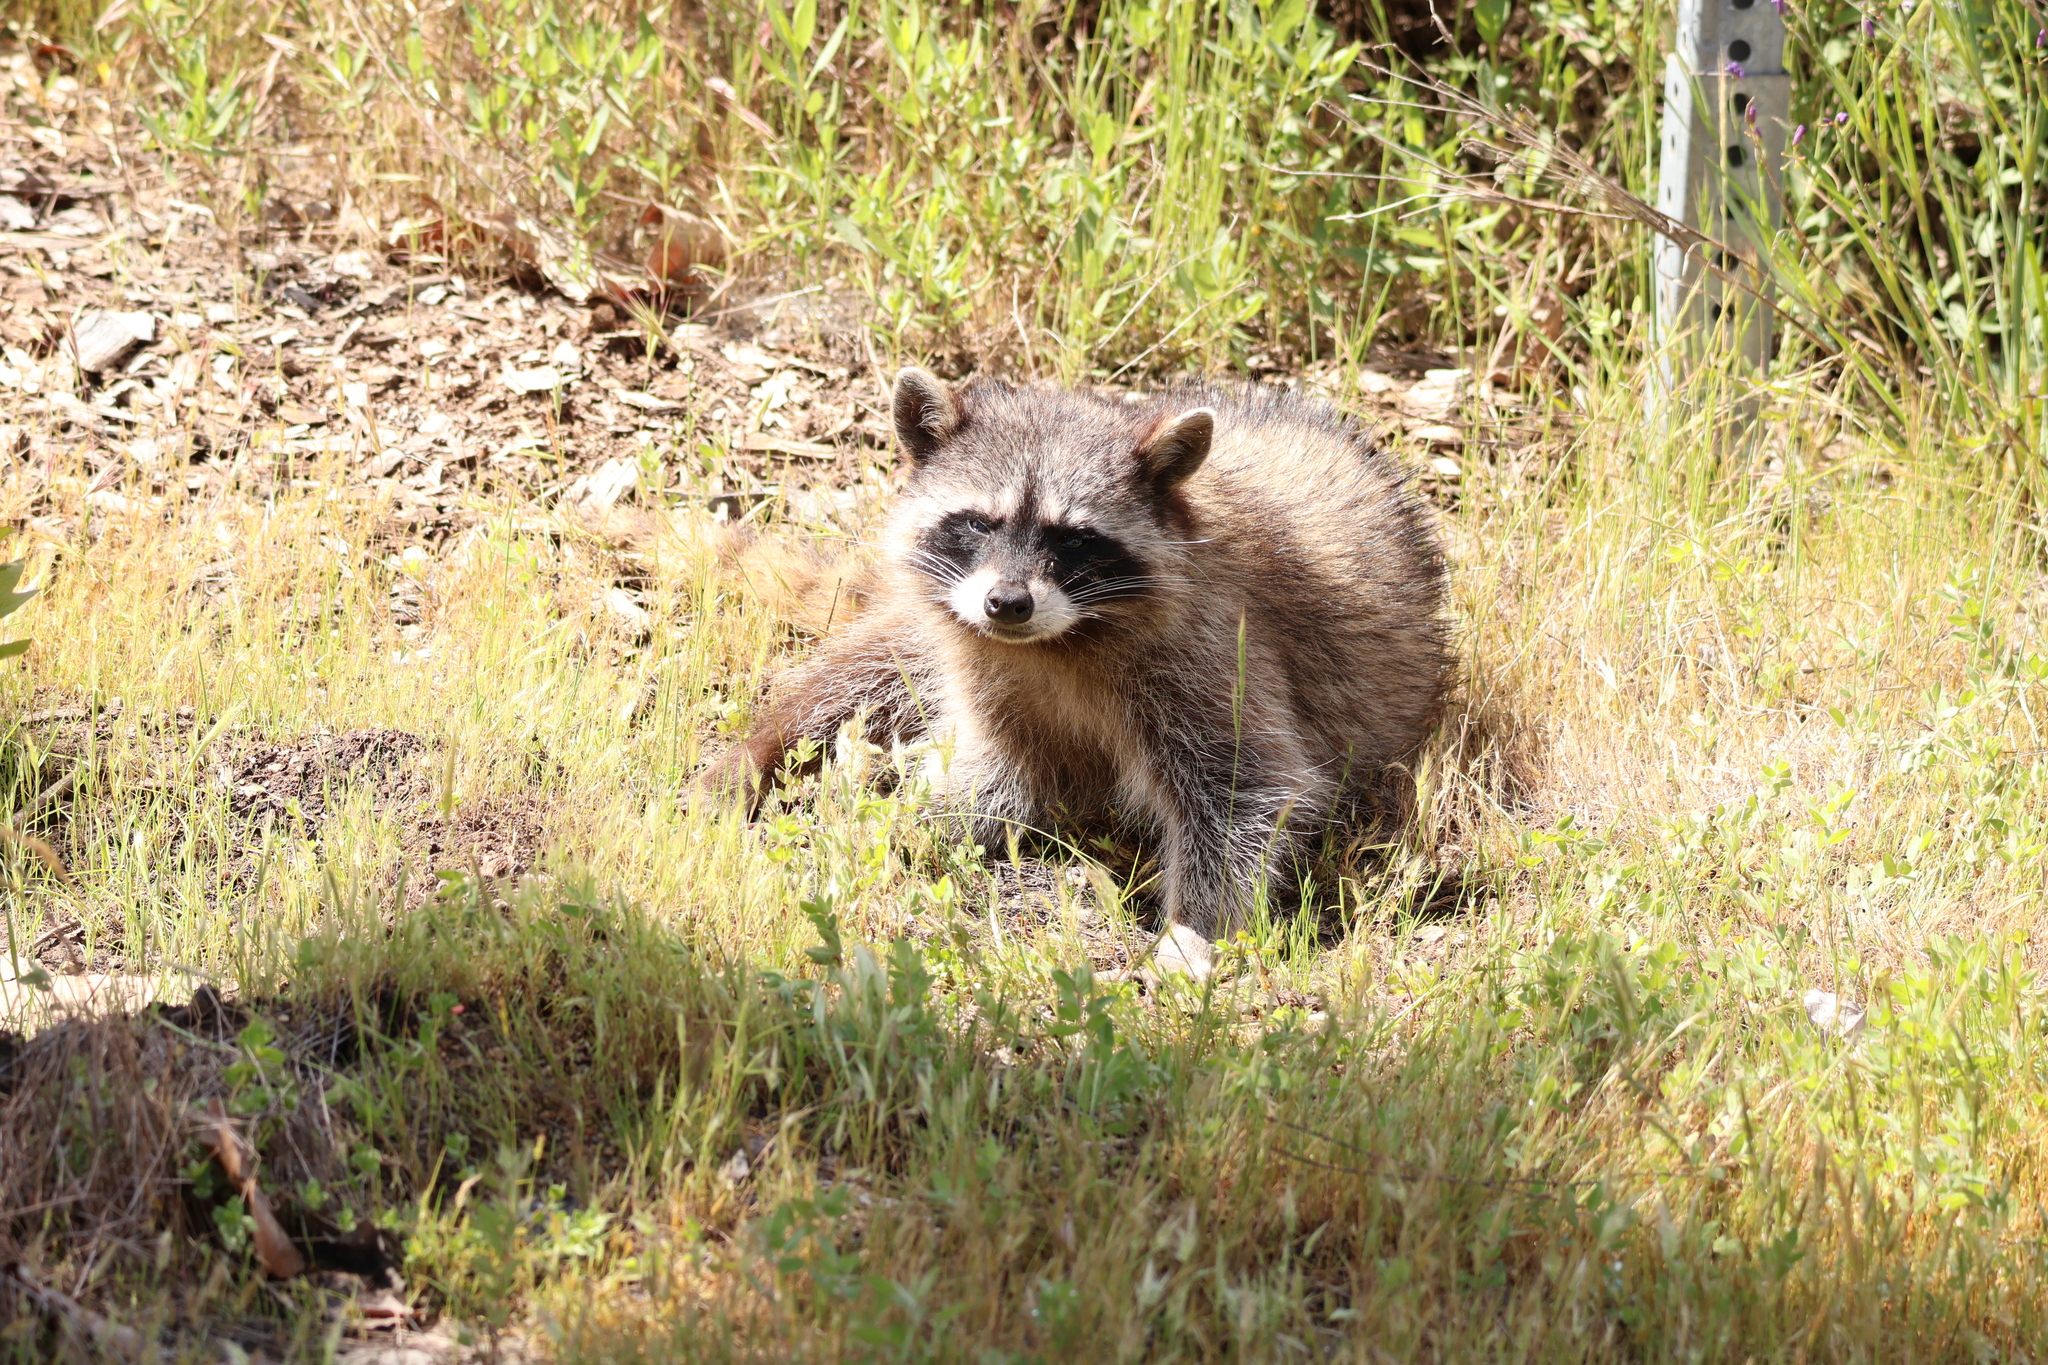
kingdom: Animalia
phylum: Chordata
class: Mammalia
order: Carnivora
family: Procyonidae
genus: Procyon
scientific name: Procyon lotor
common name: Raccoon
